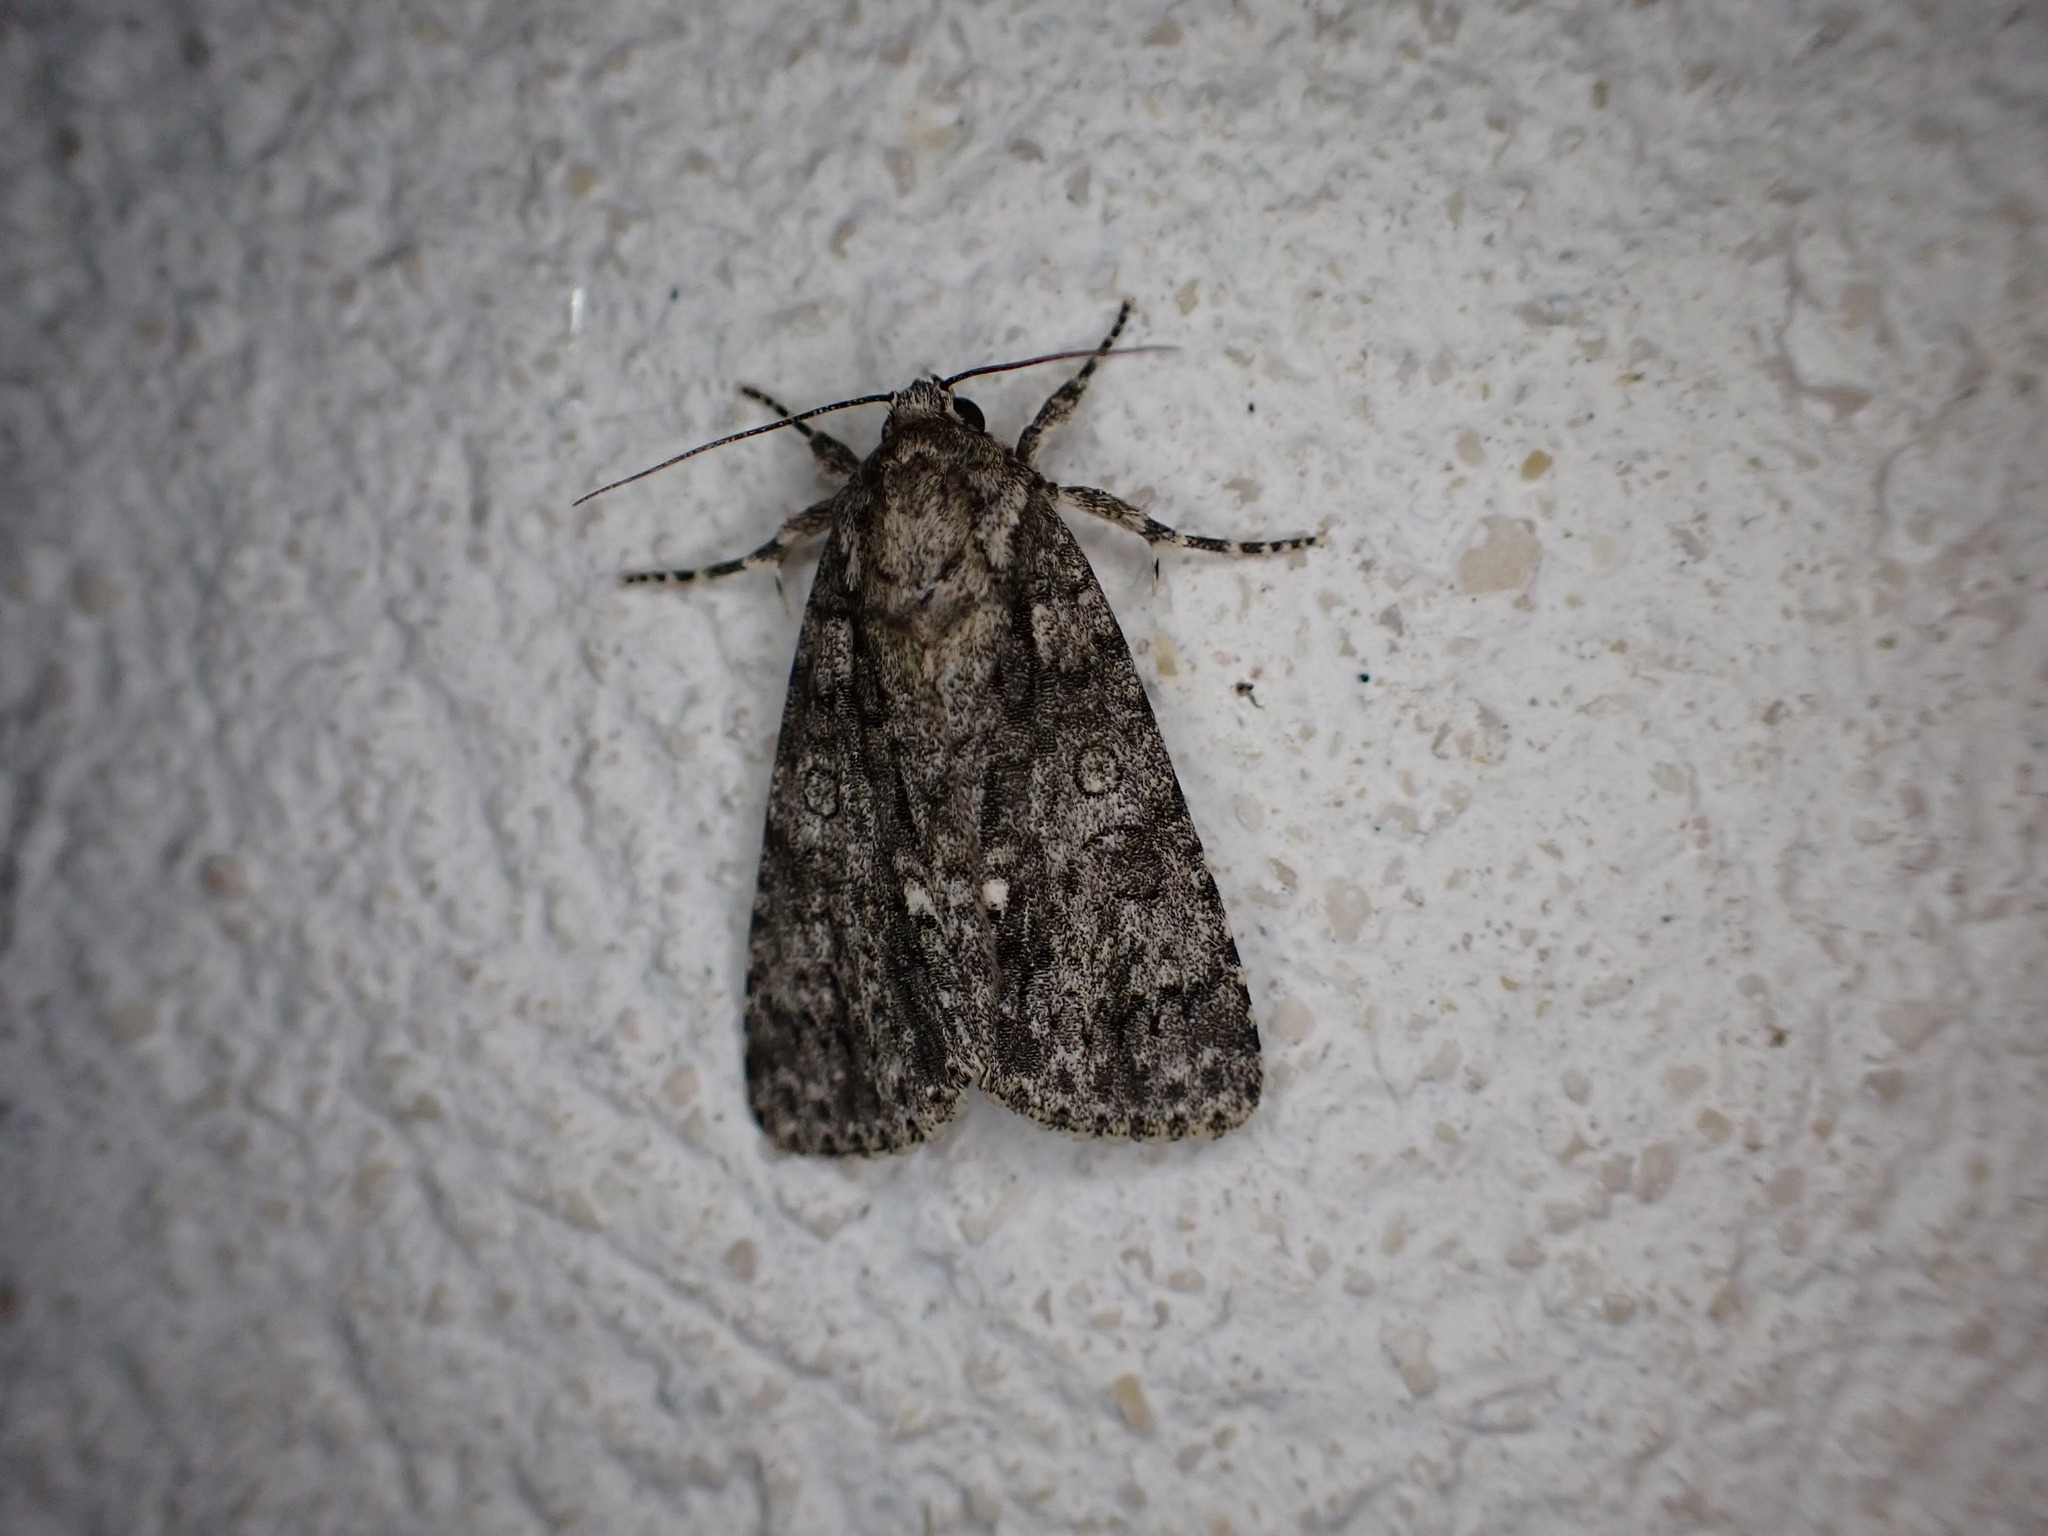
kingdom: Animalia
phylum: Arthropoda
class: Insecta
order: Lepidoptera
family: Noctuidae
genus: Acronicta
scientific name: Acronicta rumicis
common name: Knot grass
